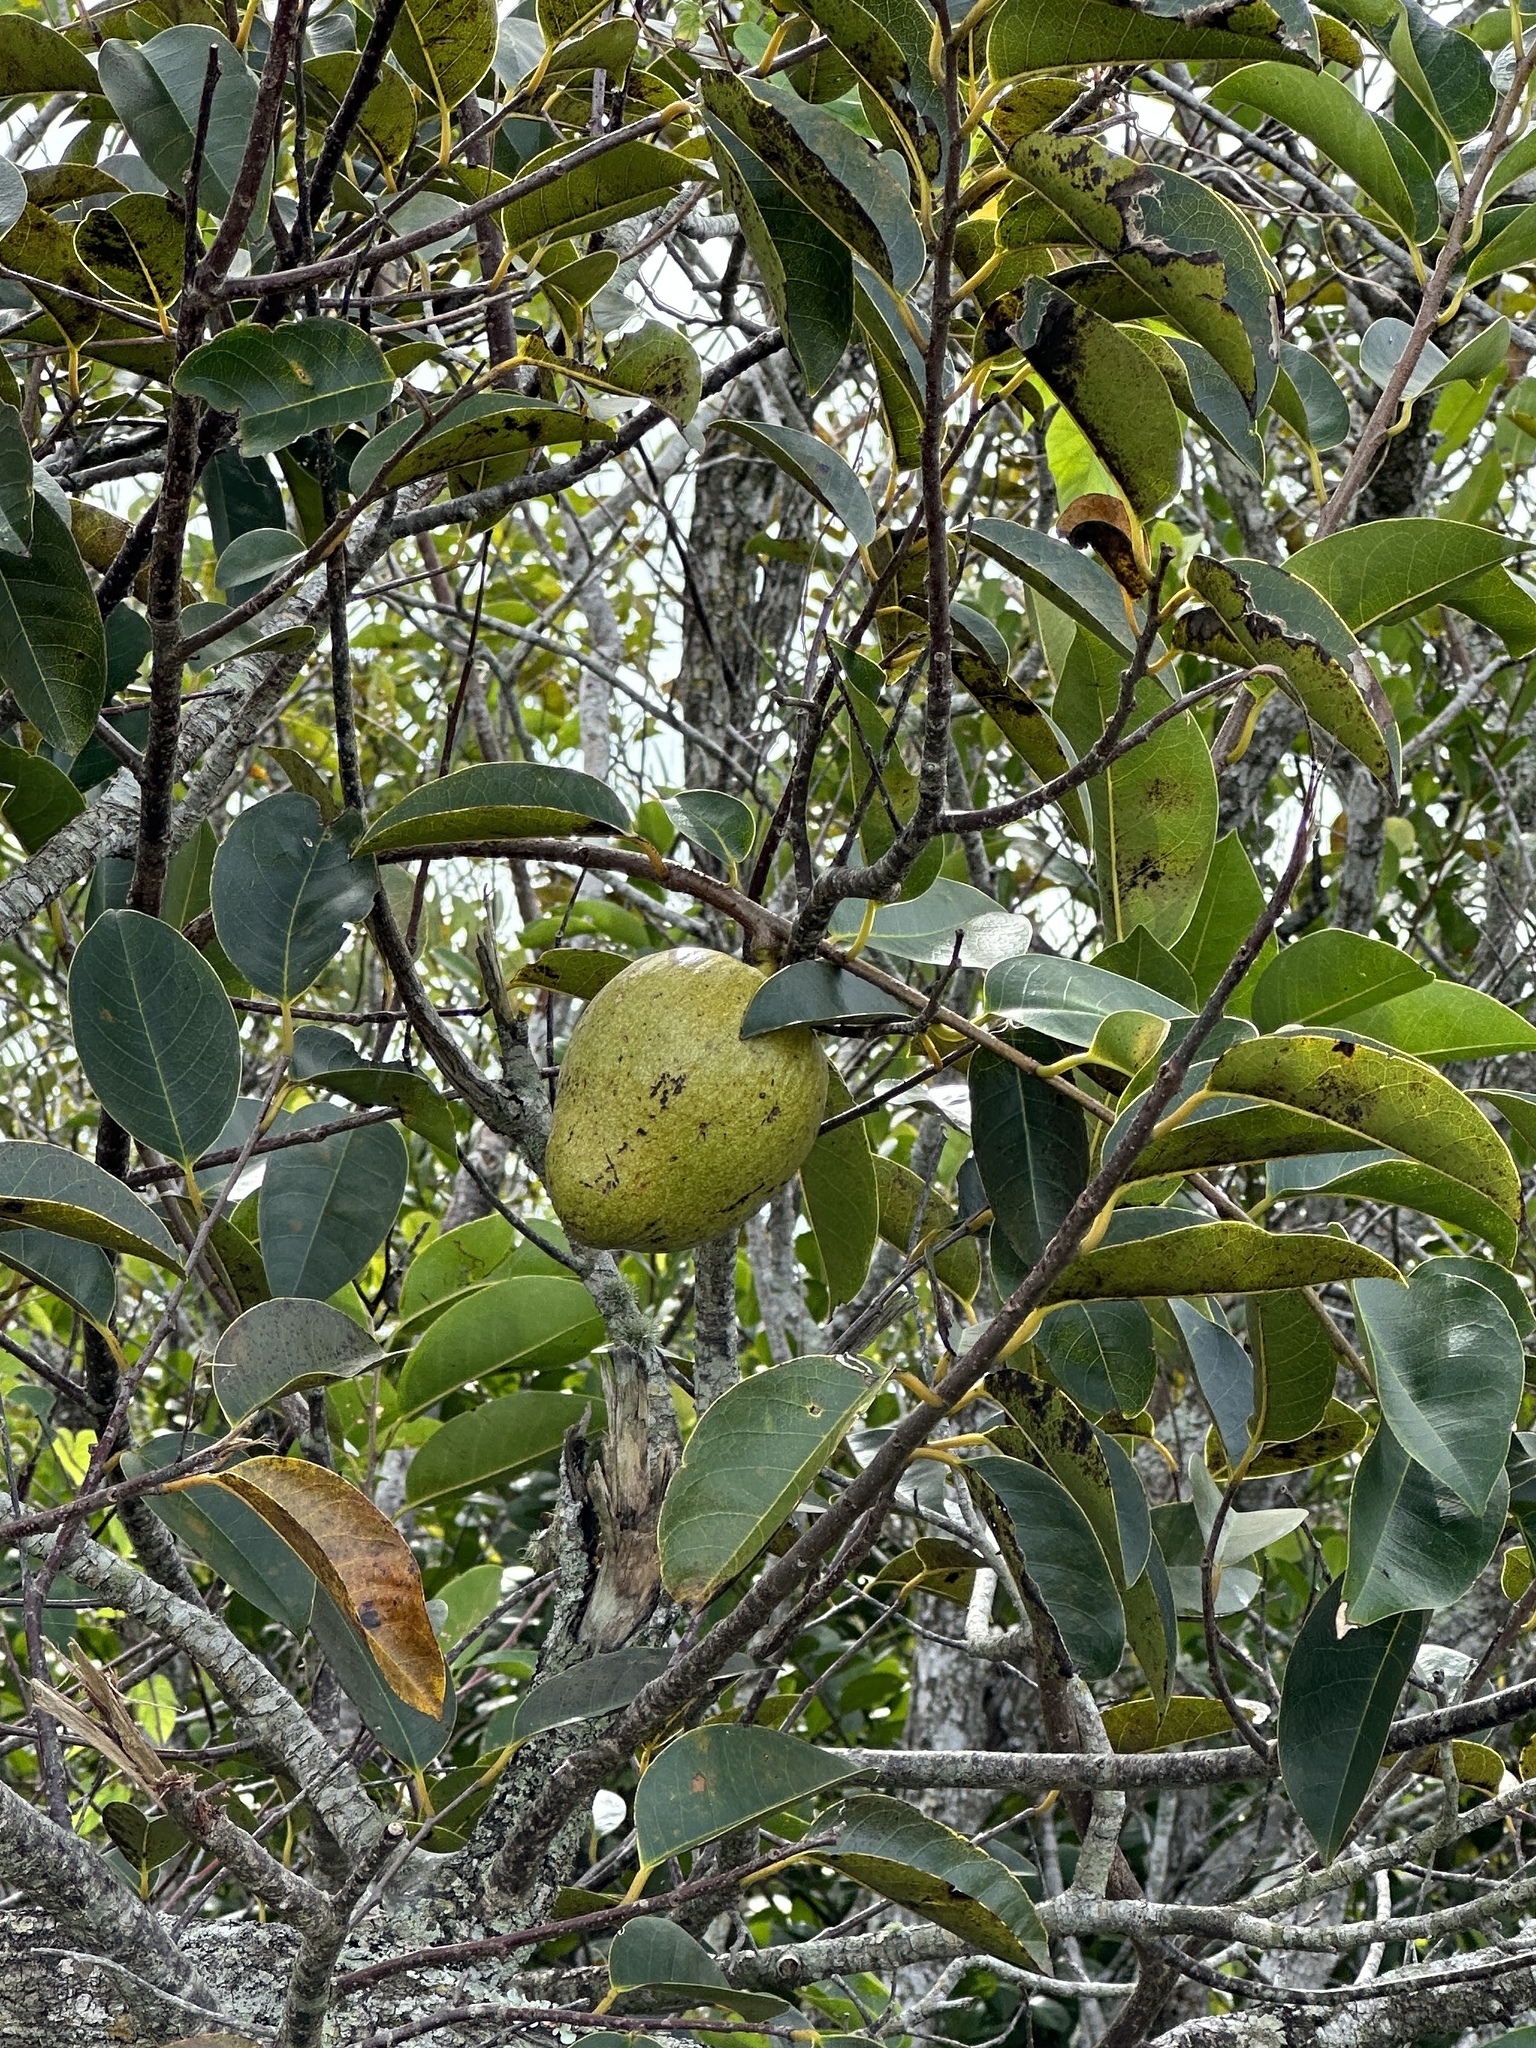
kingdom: Plantae
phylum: Tracheophyta
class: Magnoliopsida
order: Magnoliales
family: Annonaceae
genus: Annona
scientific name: Annona glabra
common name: Monkey apple
